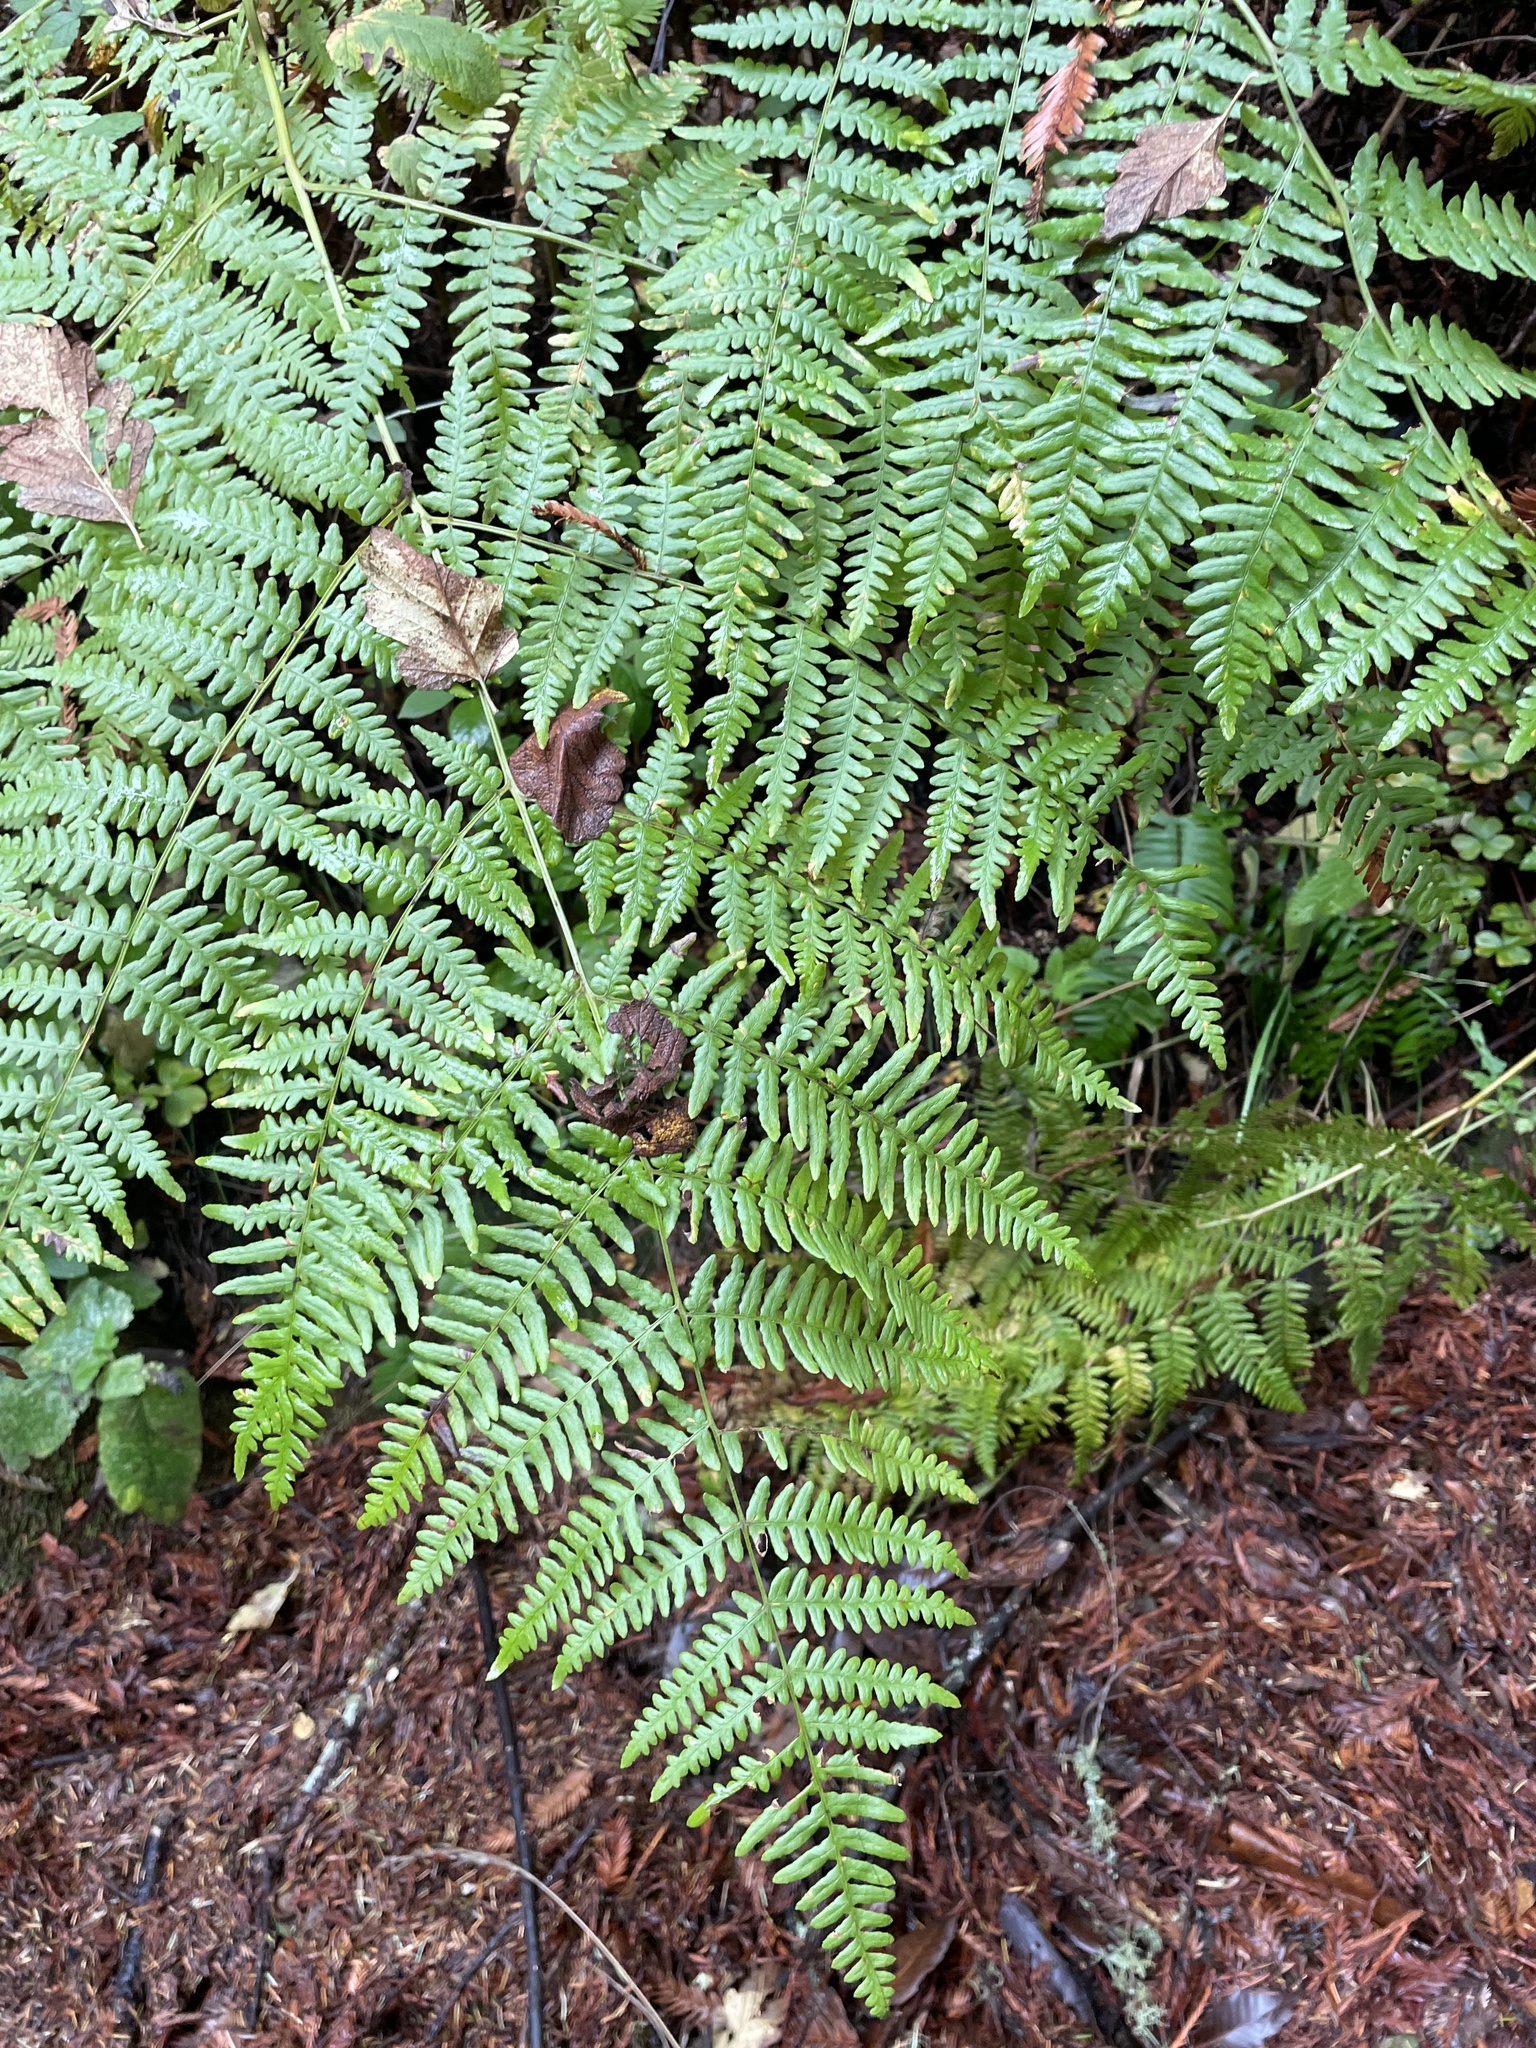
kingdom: Plantae
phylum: Tracheophyta
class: Polypodiopsida
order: Polypodiales
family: Dennstaedtiaceae
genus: Pteridium
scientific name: Pteridium aquilinum
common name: Bracken
